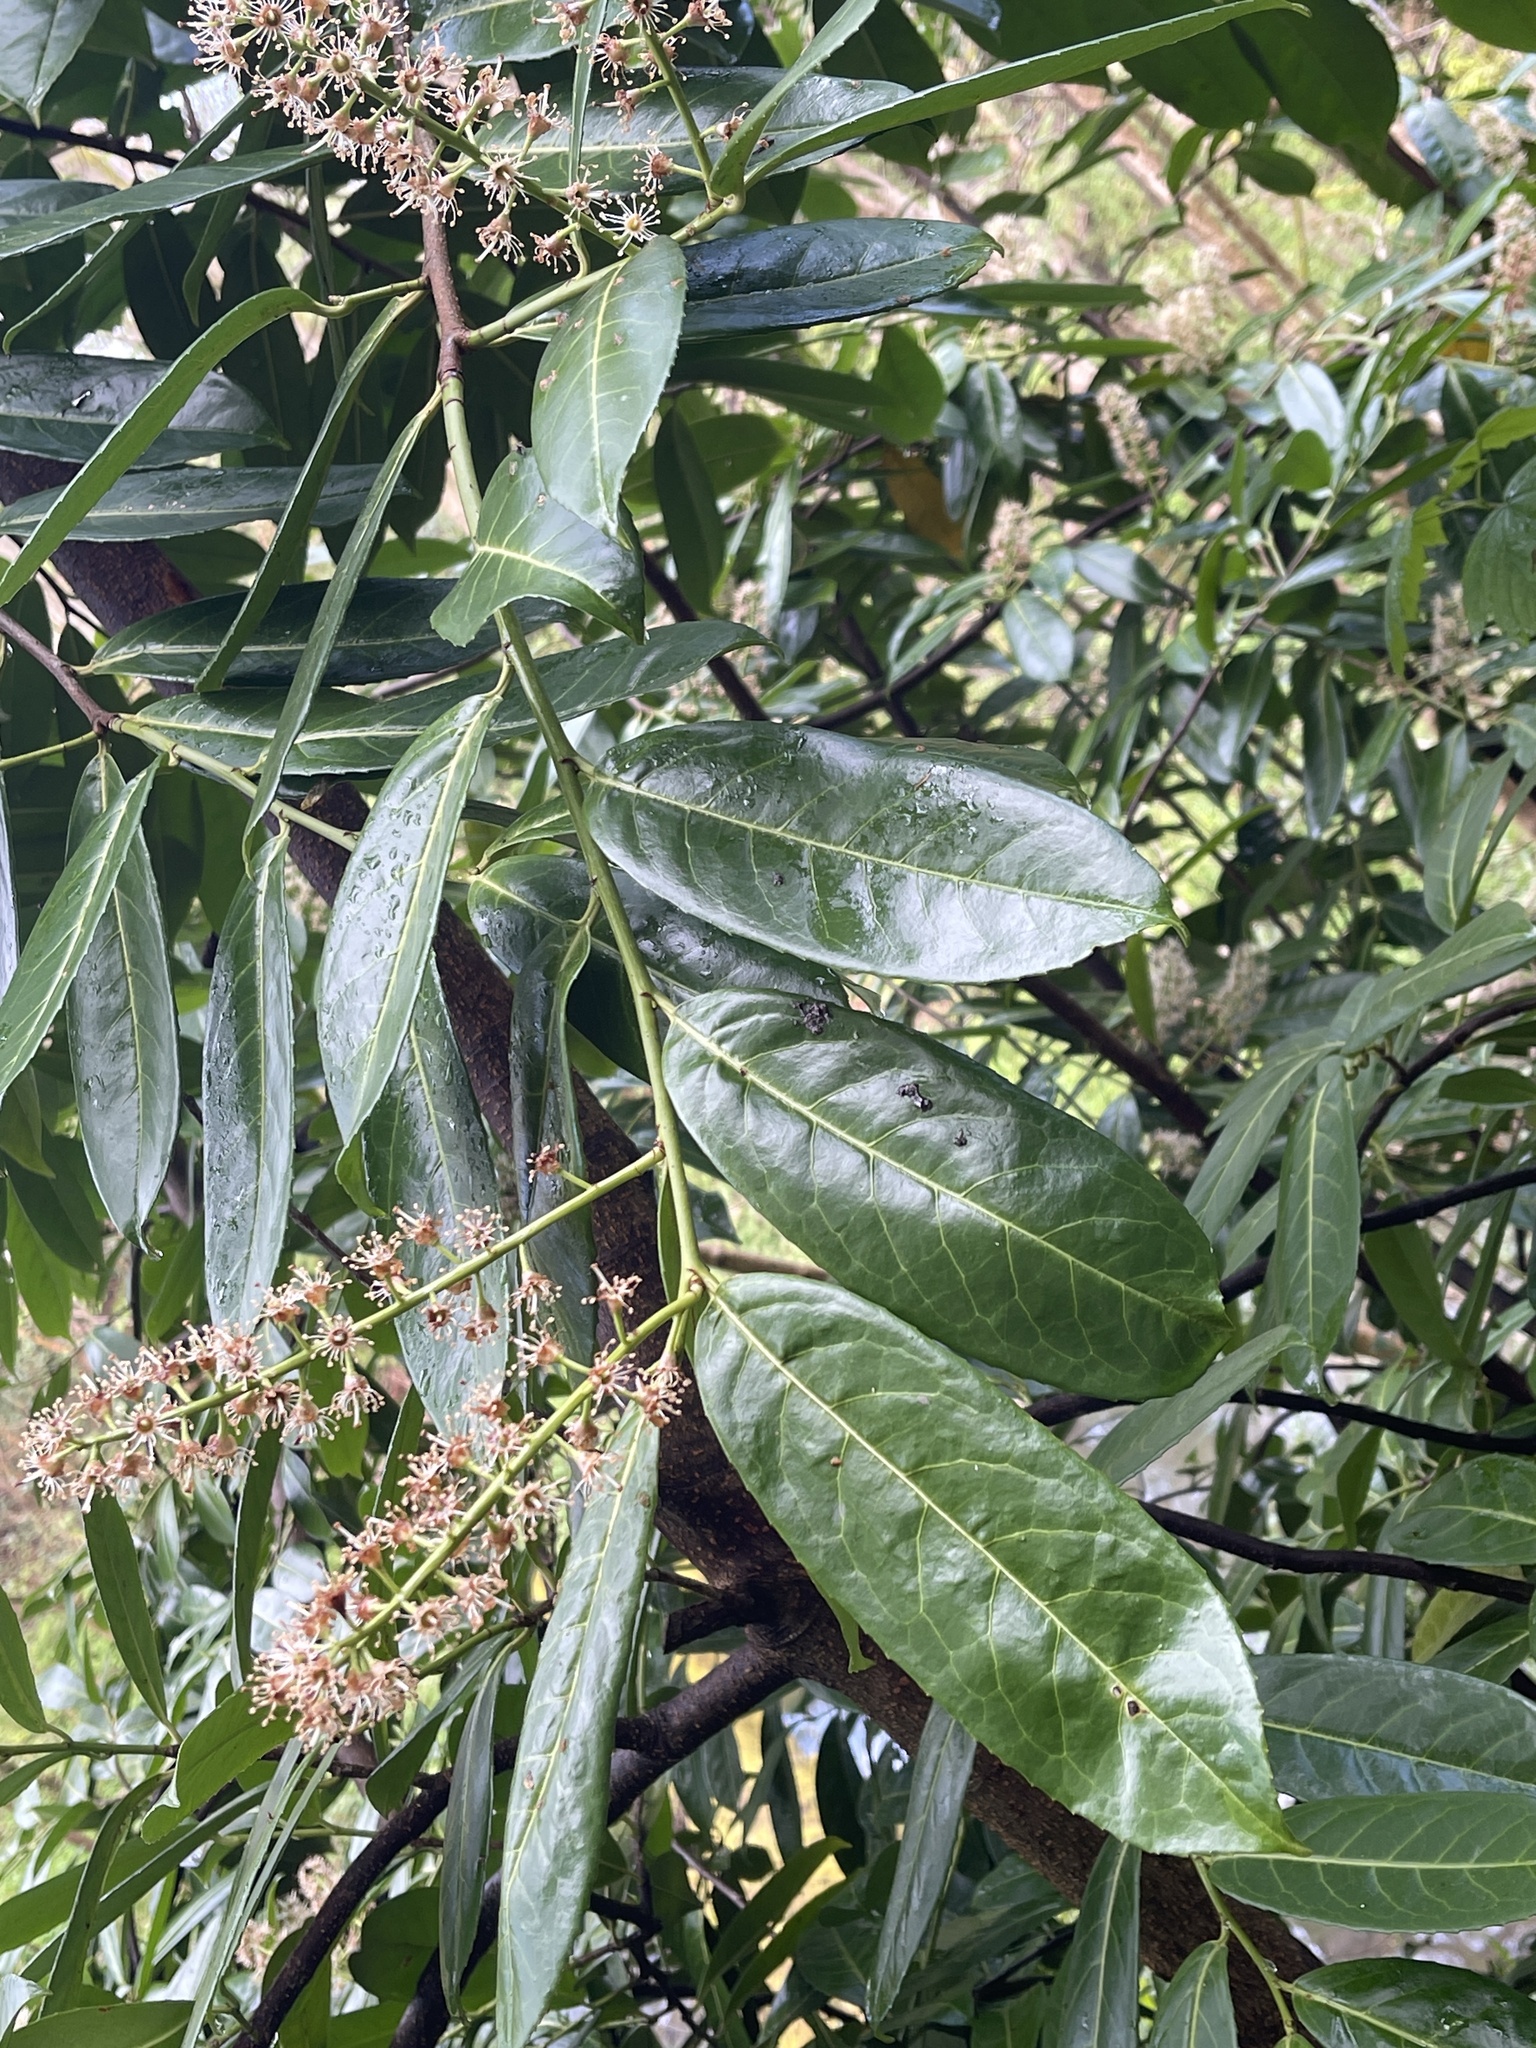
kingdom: Plantae
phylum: Tracheophyta
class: Magnoliopsida
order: Rosales
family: Rosaceae
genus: Prunus
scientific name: Prunus laurocerasus
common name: Cherry laurel
